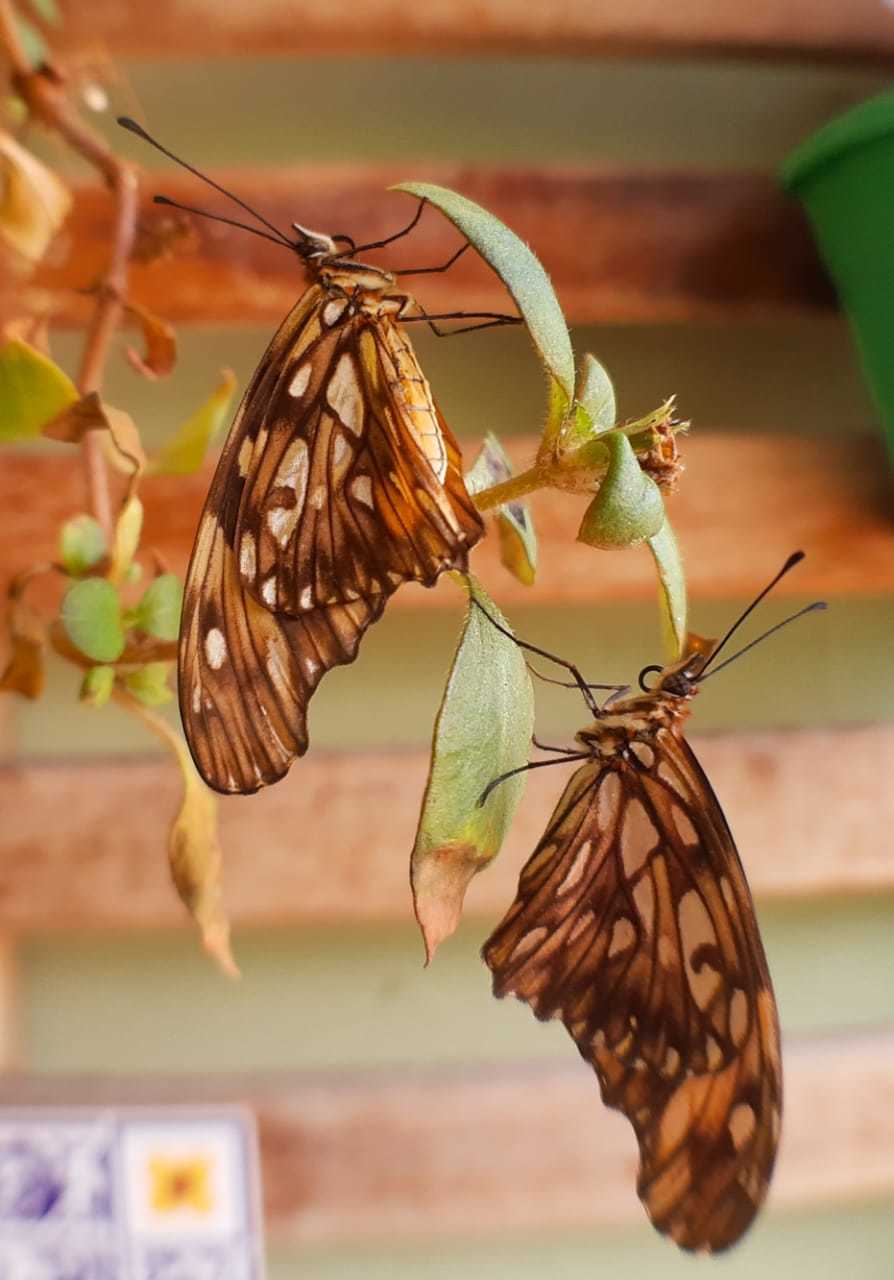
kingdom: Animalia
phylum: Arthropoda
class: Insecta
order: Lepidoptera
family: Nymphalidae
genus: Dione
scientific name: Dione juno
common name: Juno silverspot
